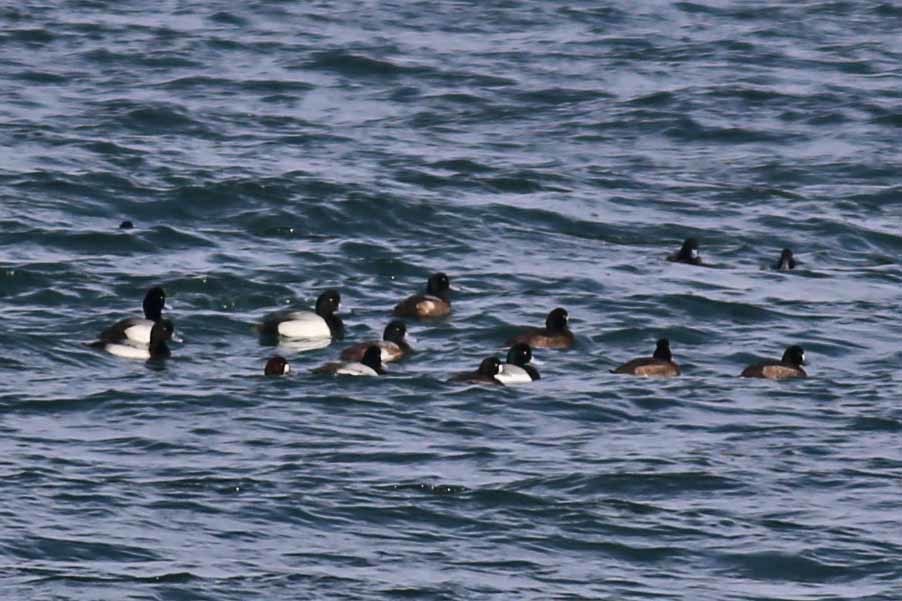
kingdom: Animalia
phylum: Chordata
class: Aves
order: Anseriformes
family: Anatidae
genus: Aythya
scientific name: Aythya marila
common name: Greater scaup
